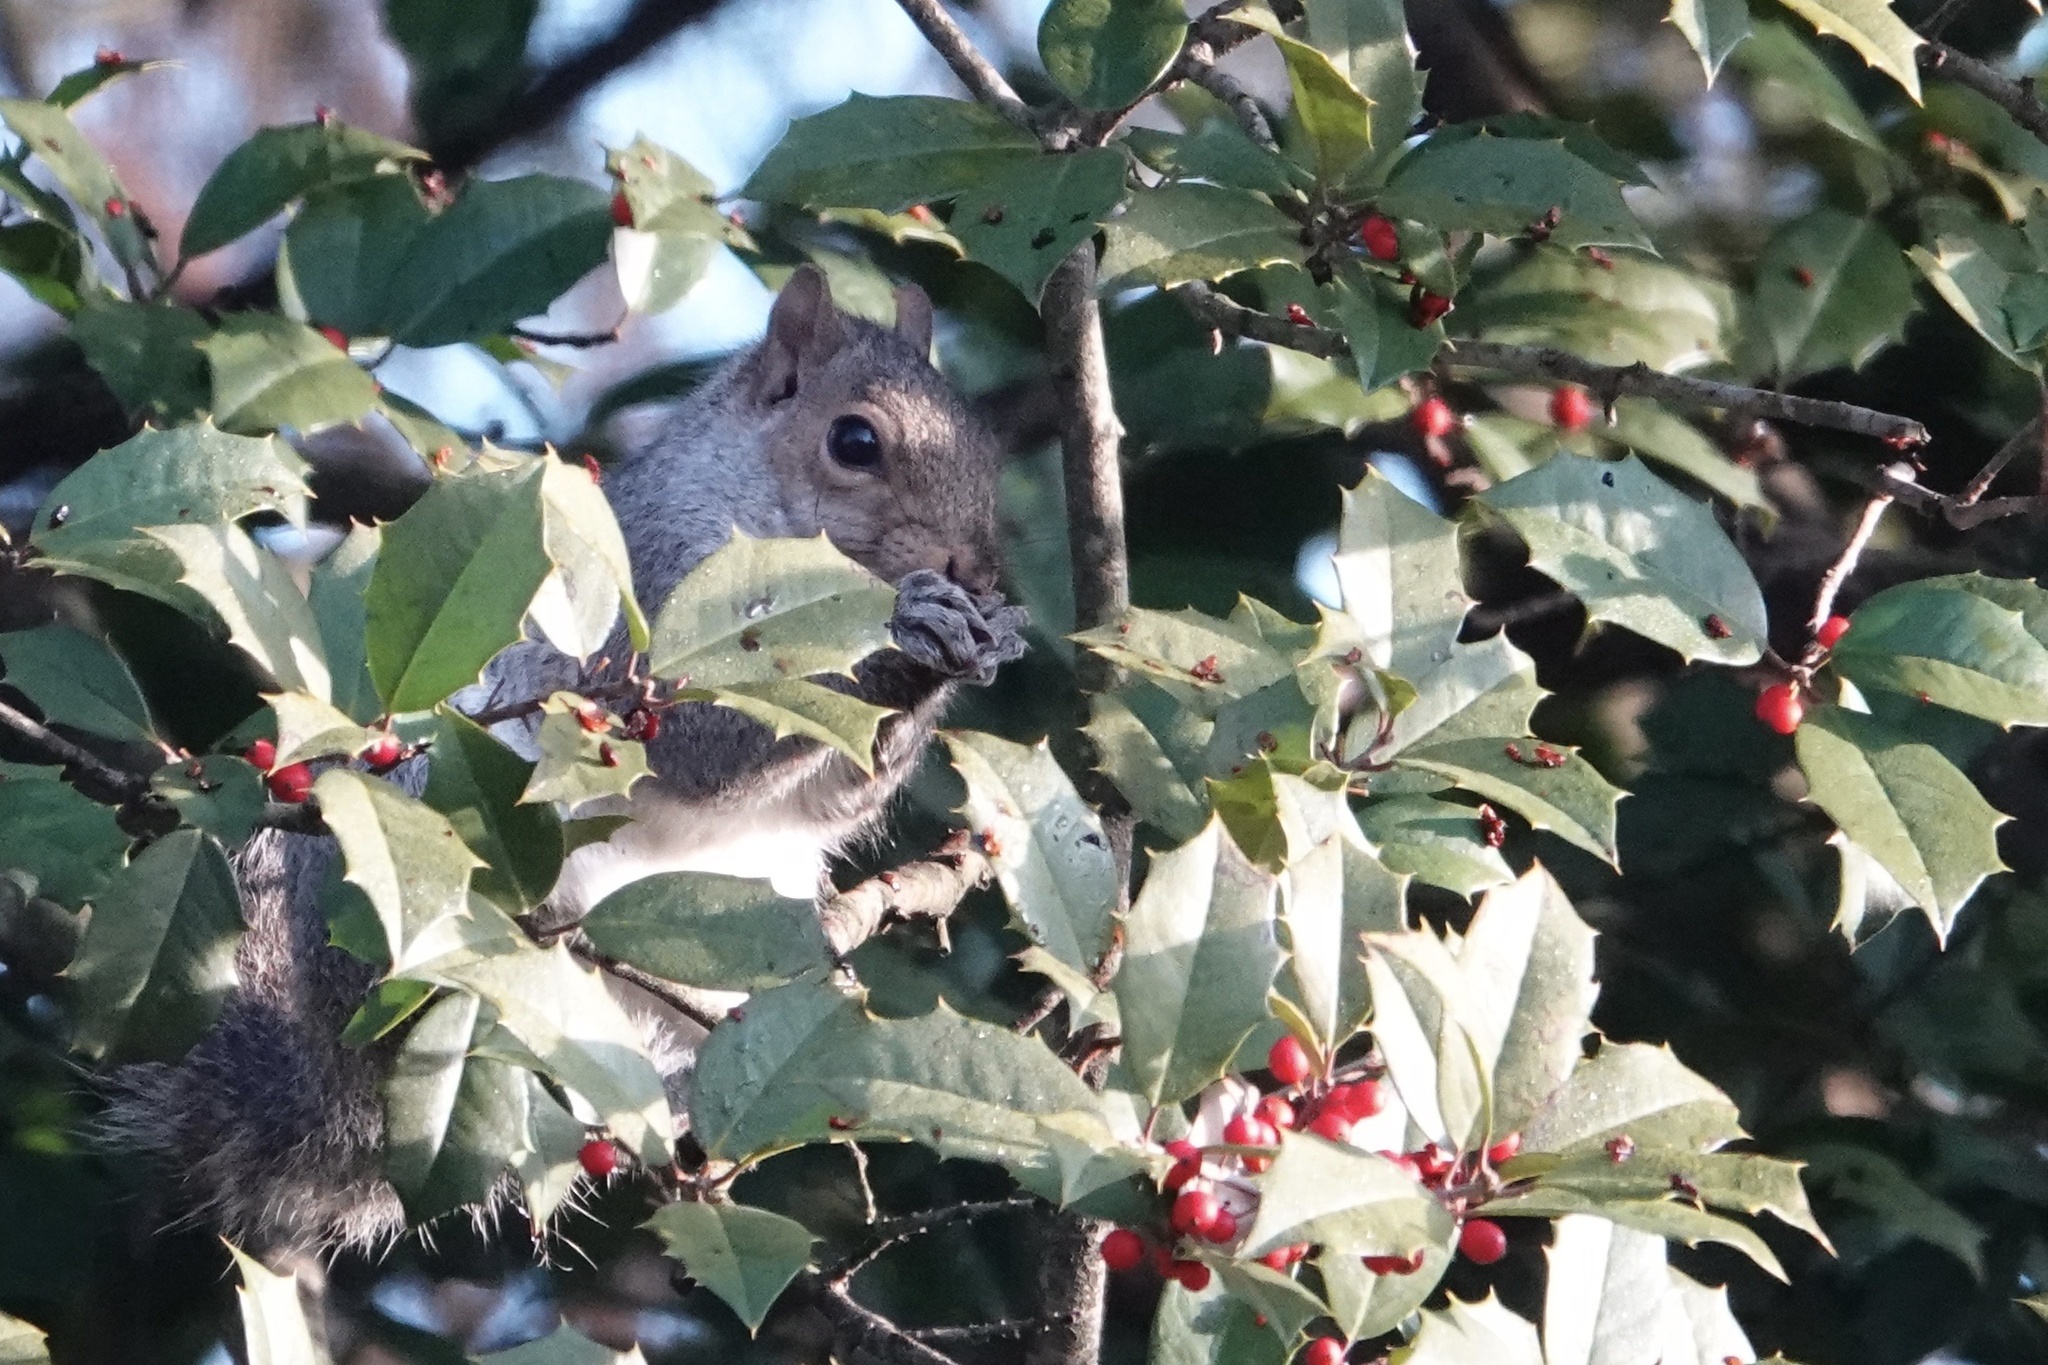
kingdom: Animalia
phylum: Chordata
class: Mammalia
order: Rodentia
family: Sciuridae
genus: Sciurus
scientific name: Sciurus carolinensis
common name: Eastern gray squirrel
